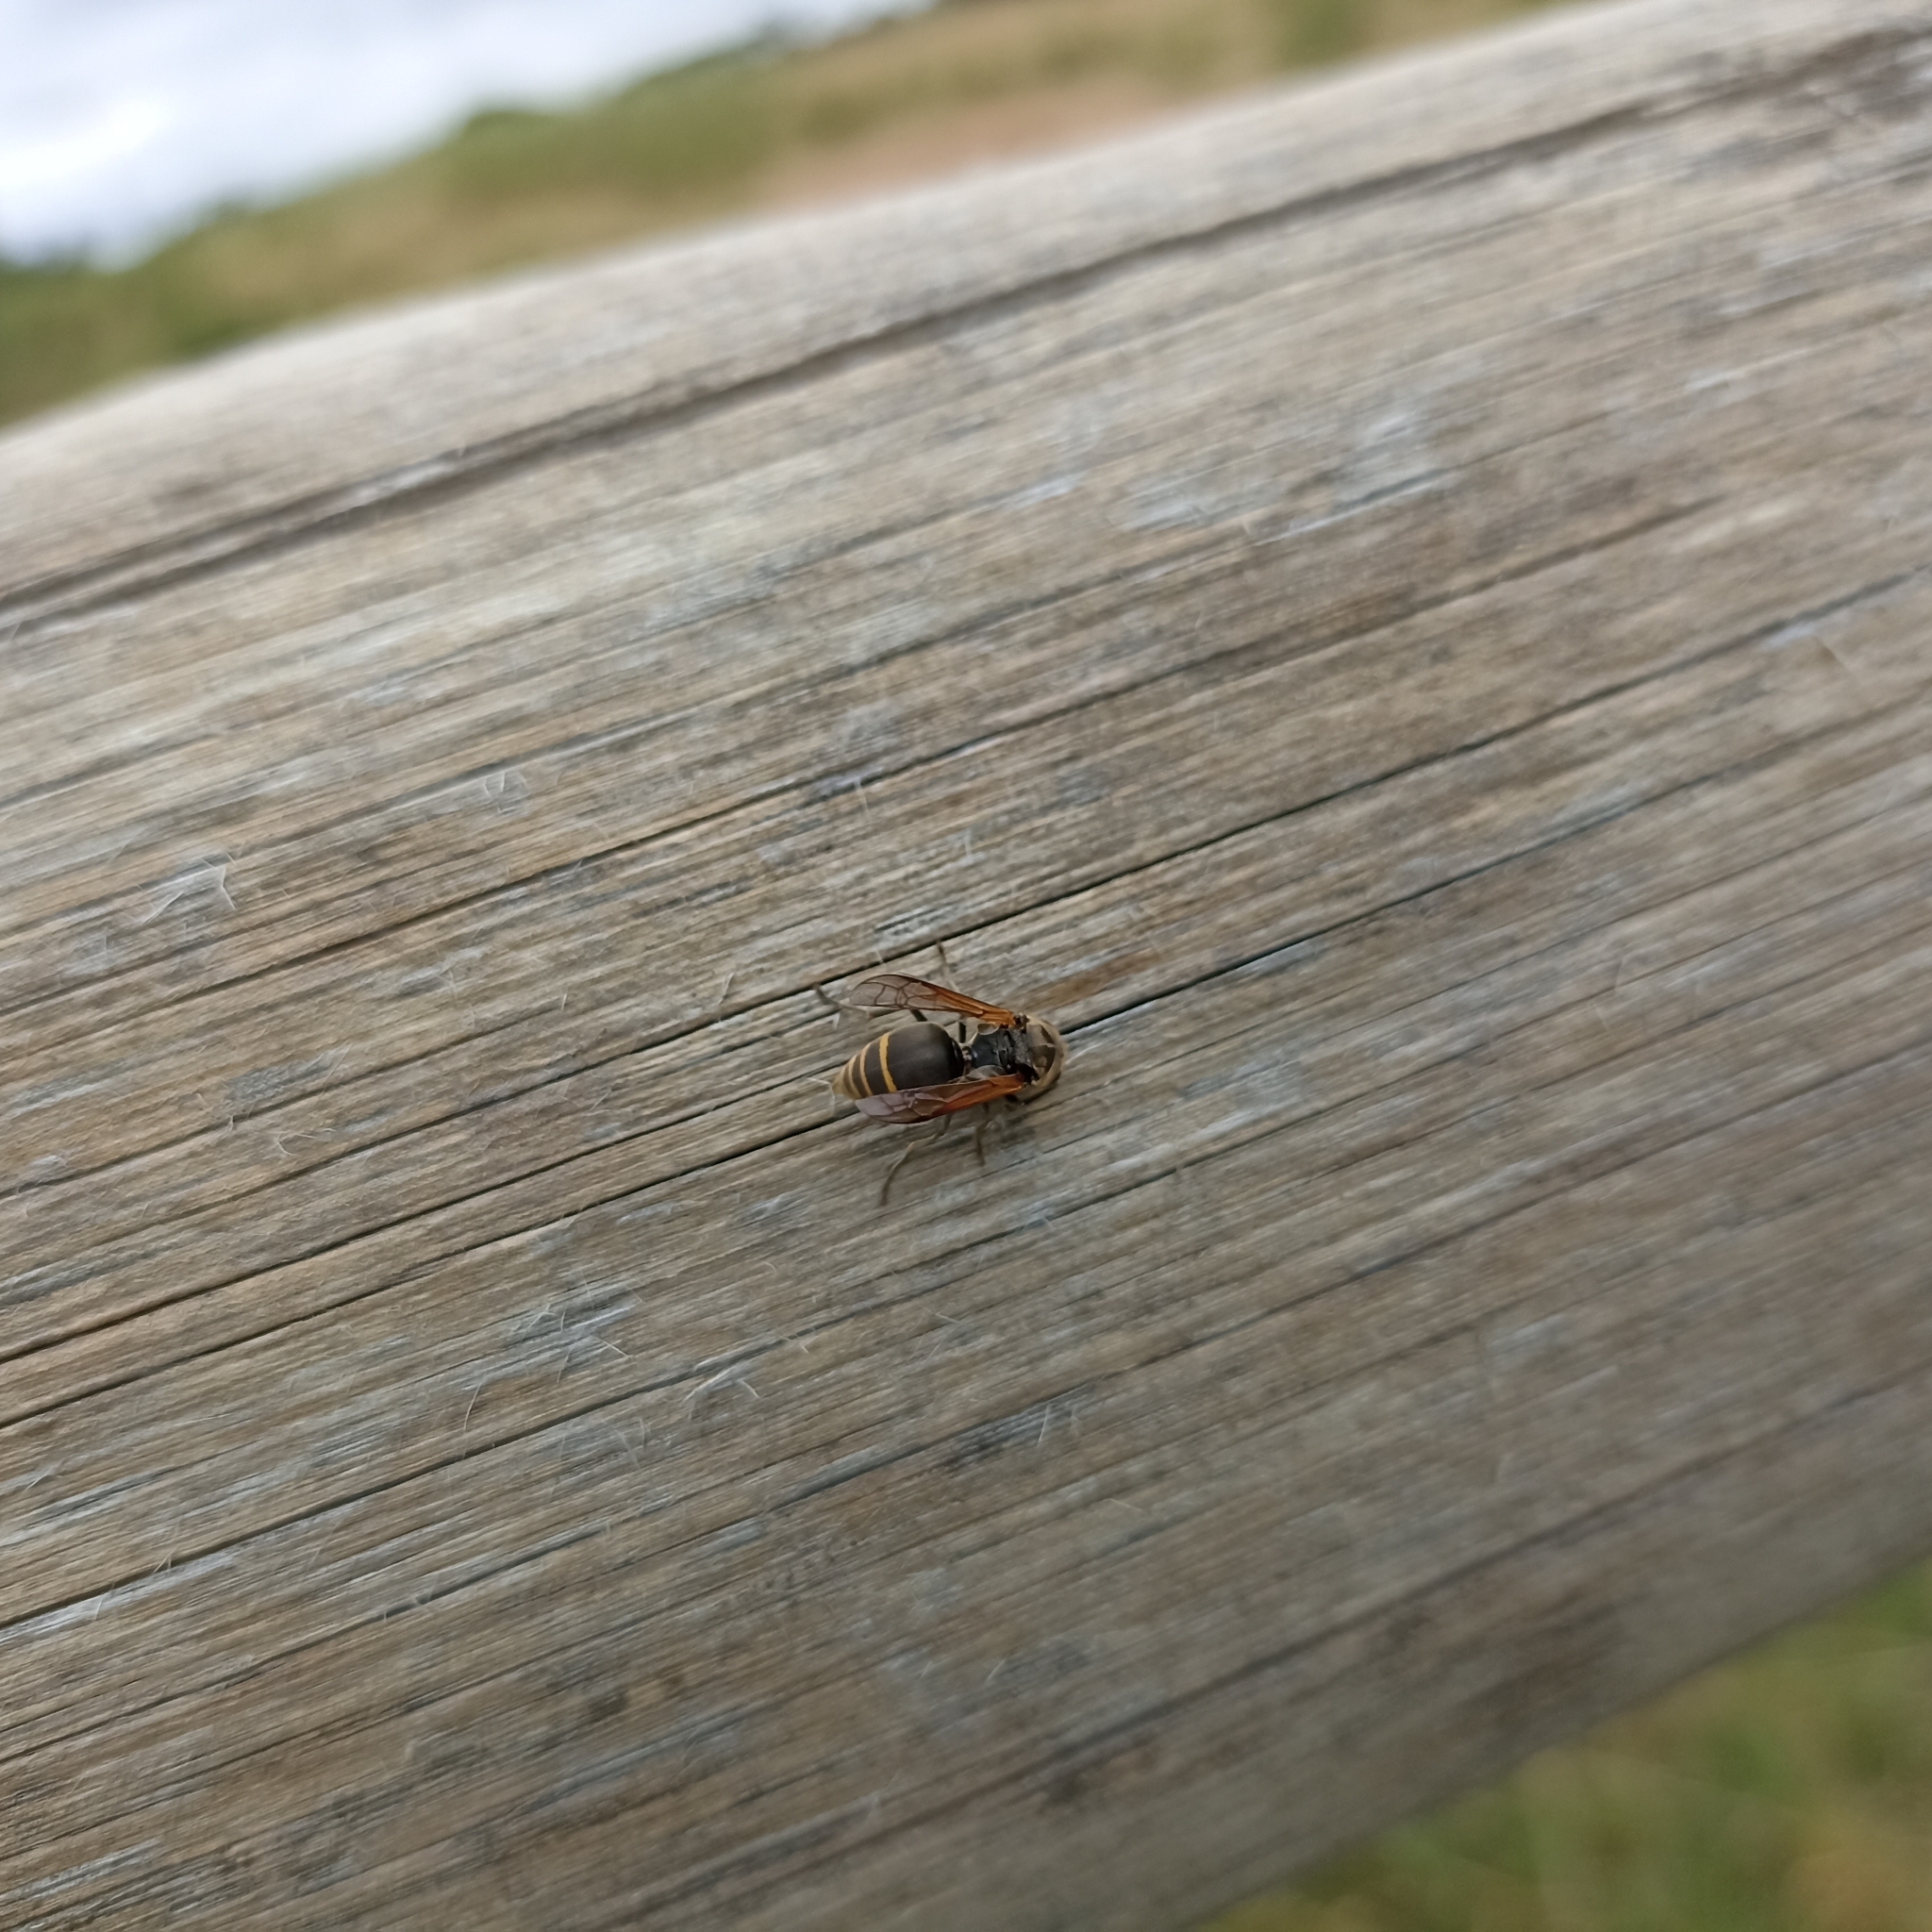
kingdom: Animalia
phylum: Arthropoda
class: Insecta
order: Hymenoptera
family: Vespidae
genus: Brachygastra
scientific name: Brachygastra lecheguana
